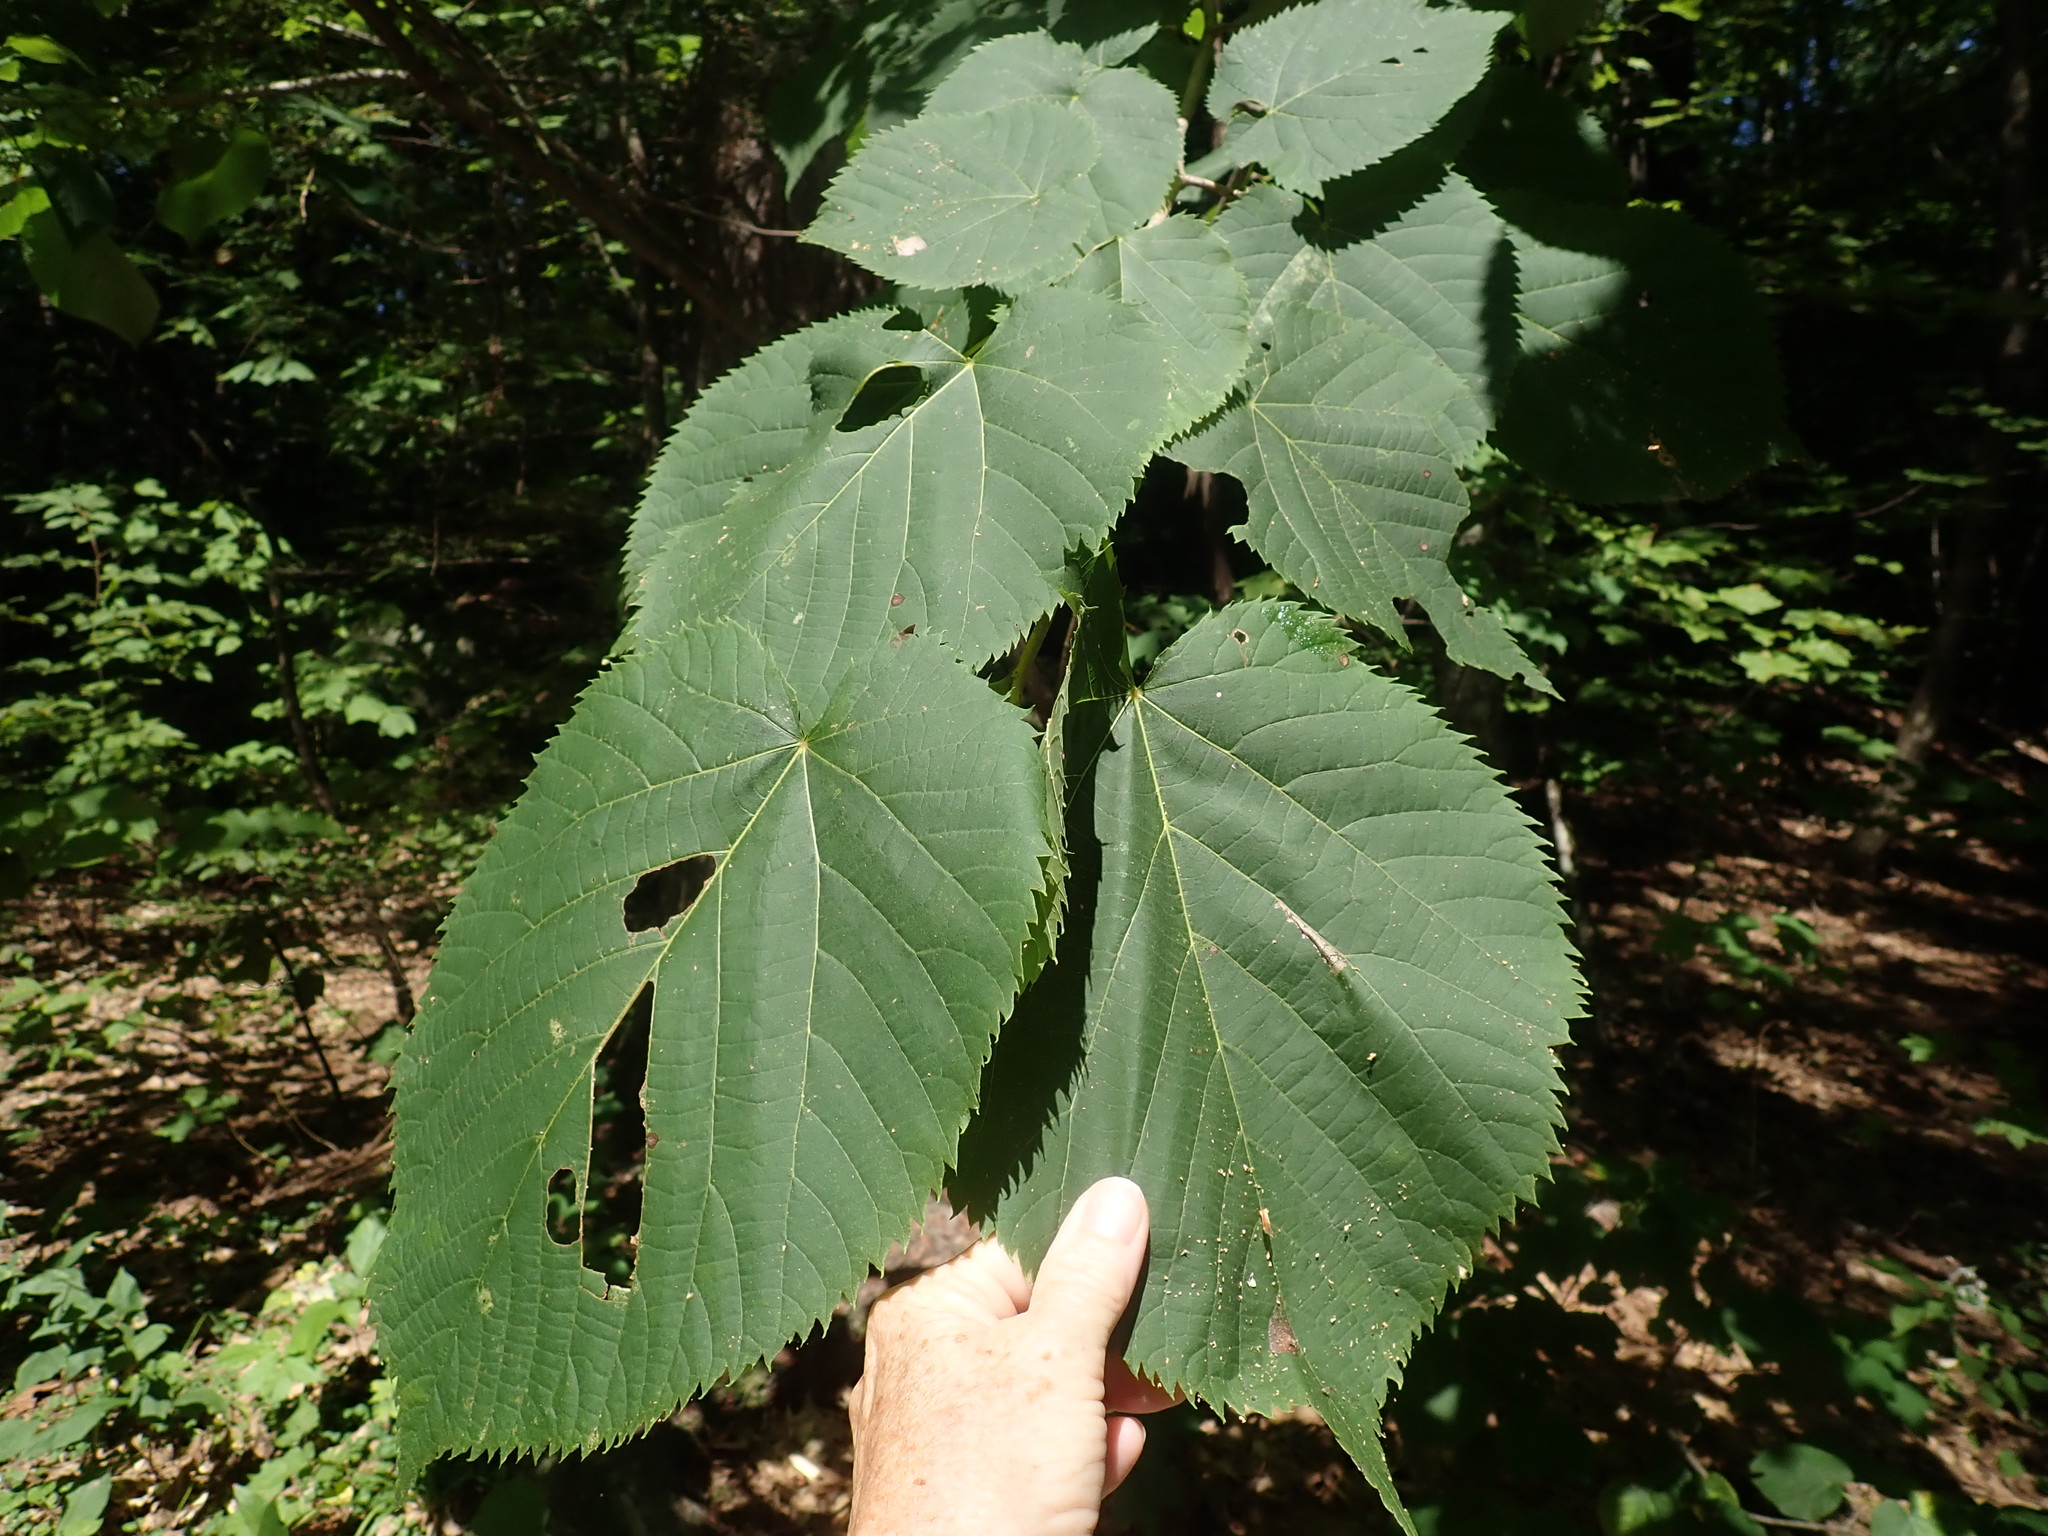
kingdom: Plantae
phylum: Tracheophyta
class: Magnoliopsida
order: Malvales
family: Malvaceae
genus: Tilia
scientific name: Tilia americana
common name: Basswood
